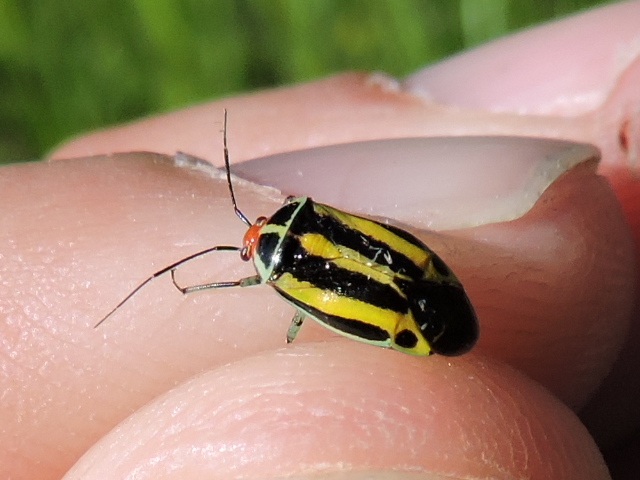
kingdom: Animalia
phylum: Arthropoda
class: Insecta
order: Hemiptera
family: Miridae
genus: Poecilocapsus
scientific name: Poecilocapsus lineatus
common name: Four-lined plant bug
